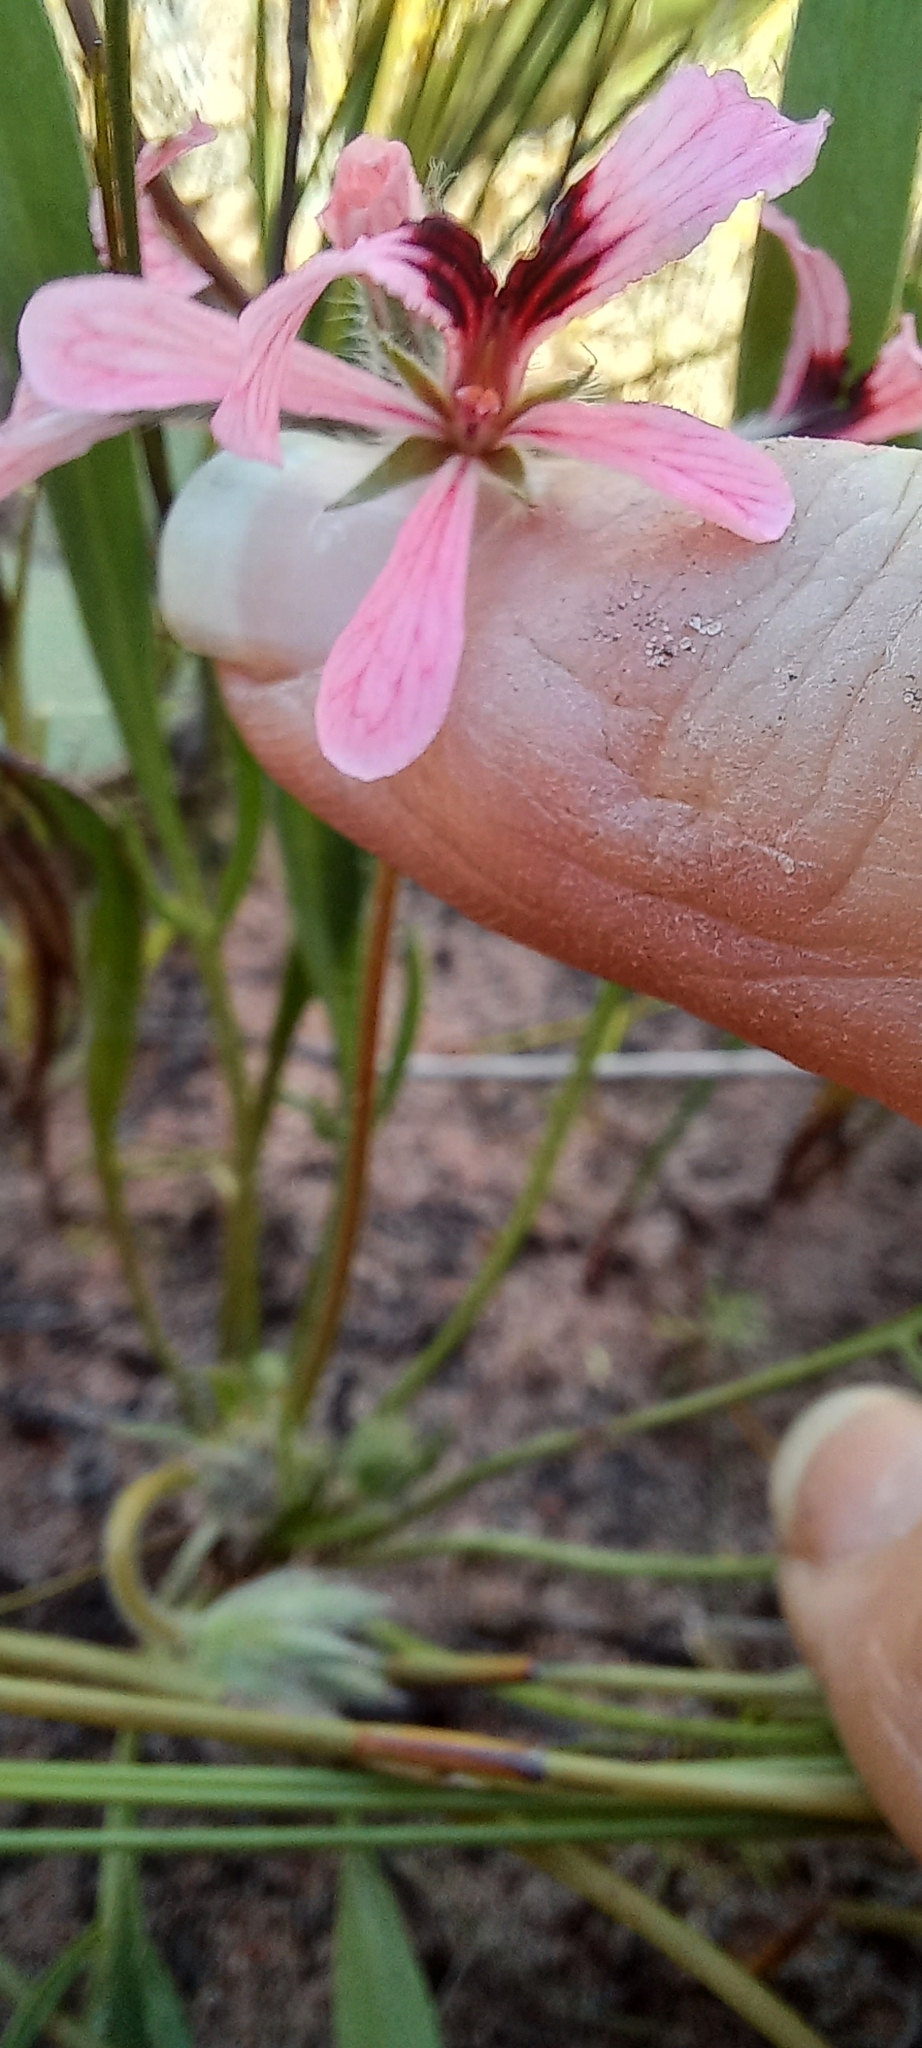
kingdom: Plantae
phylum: Tracheophyta
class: Magnoliopsida
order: Geraniales
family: Geraniaceae
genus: Pelargonium
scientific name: Pelargonium longifolium
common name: Bearded pelargonium
